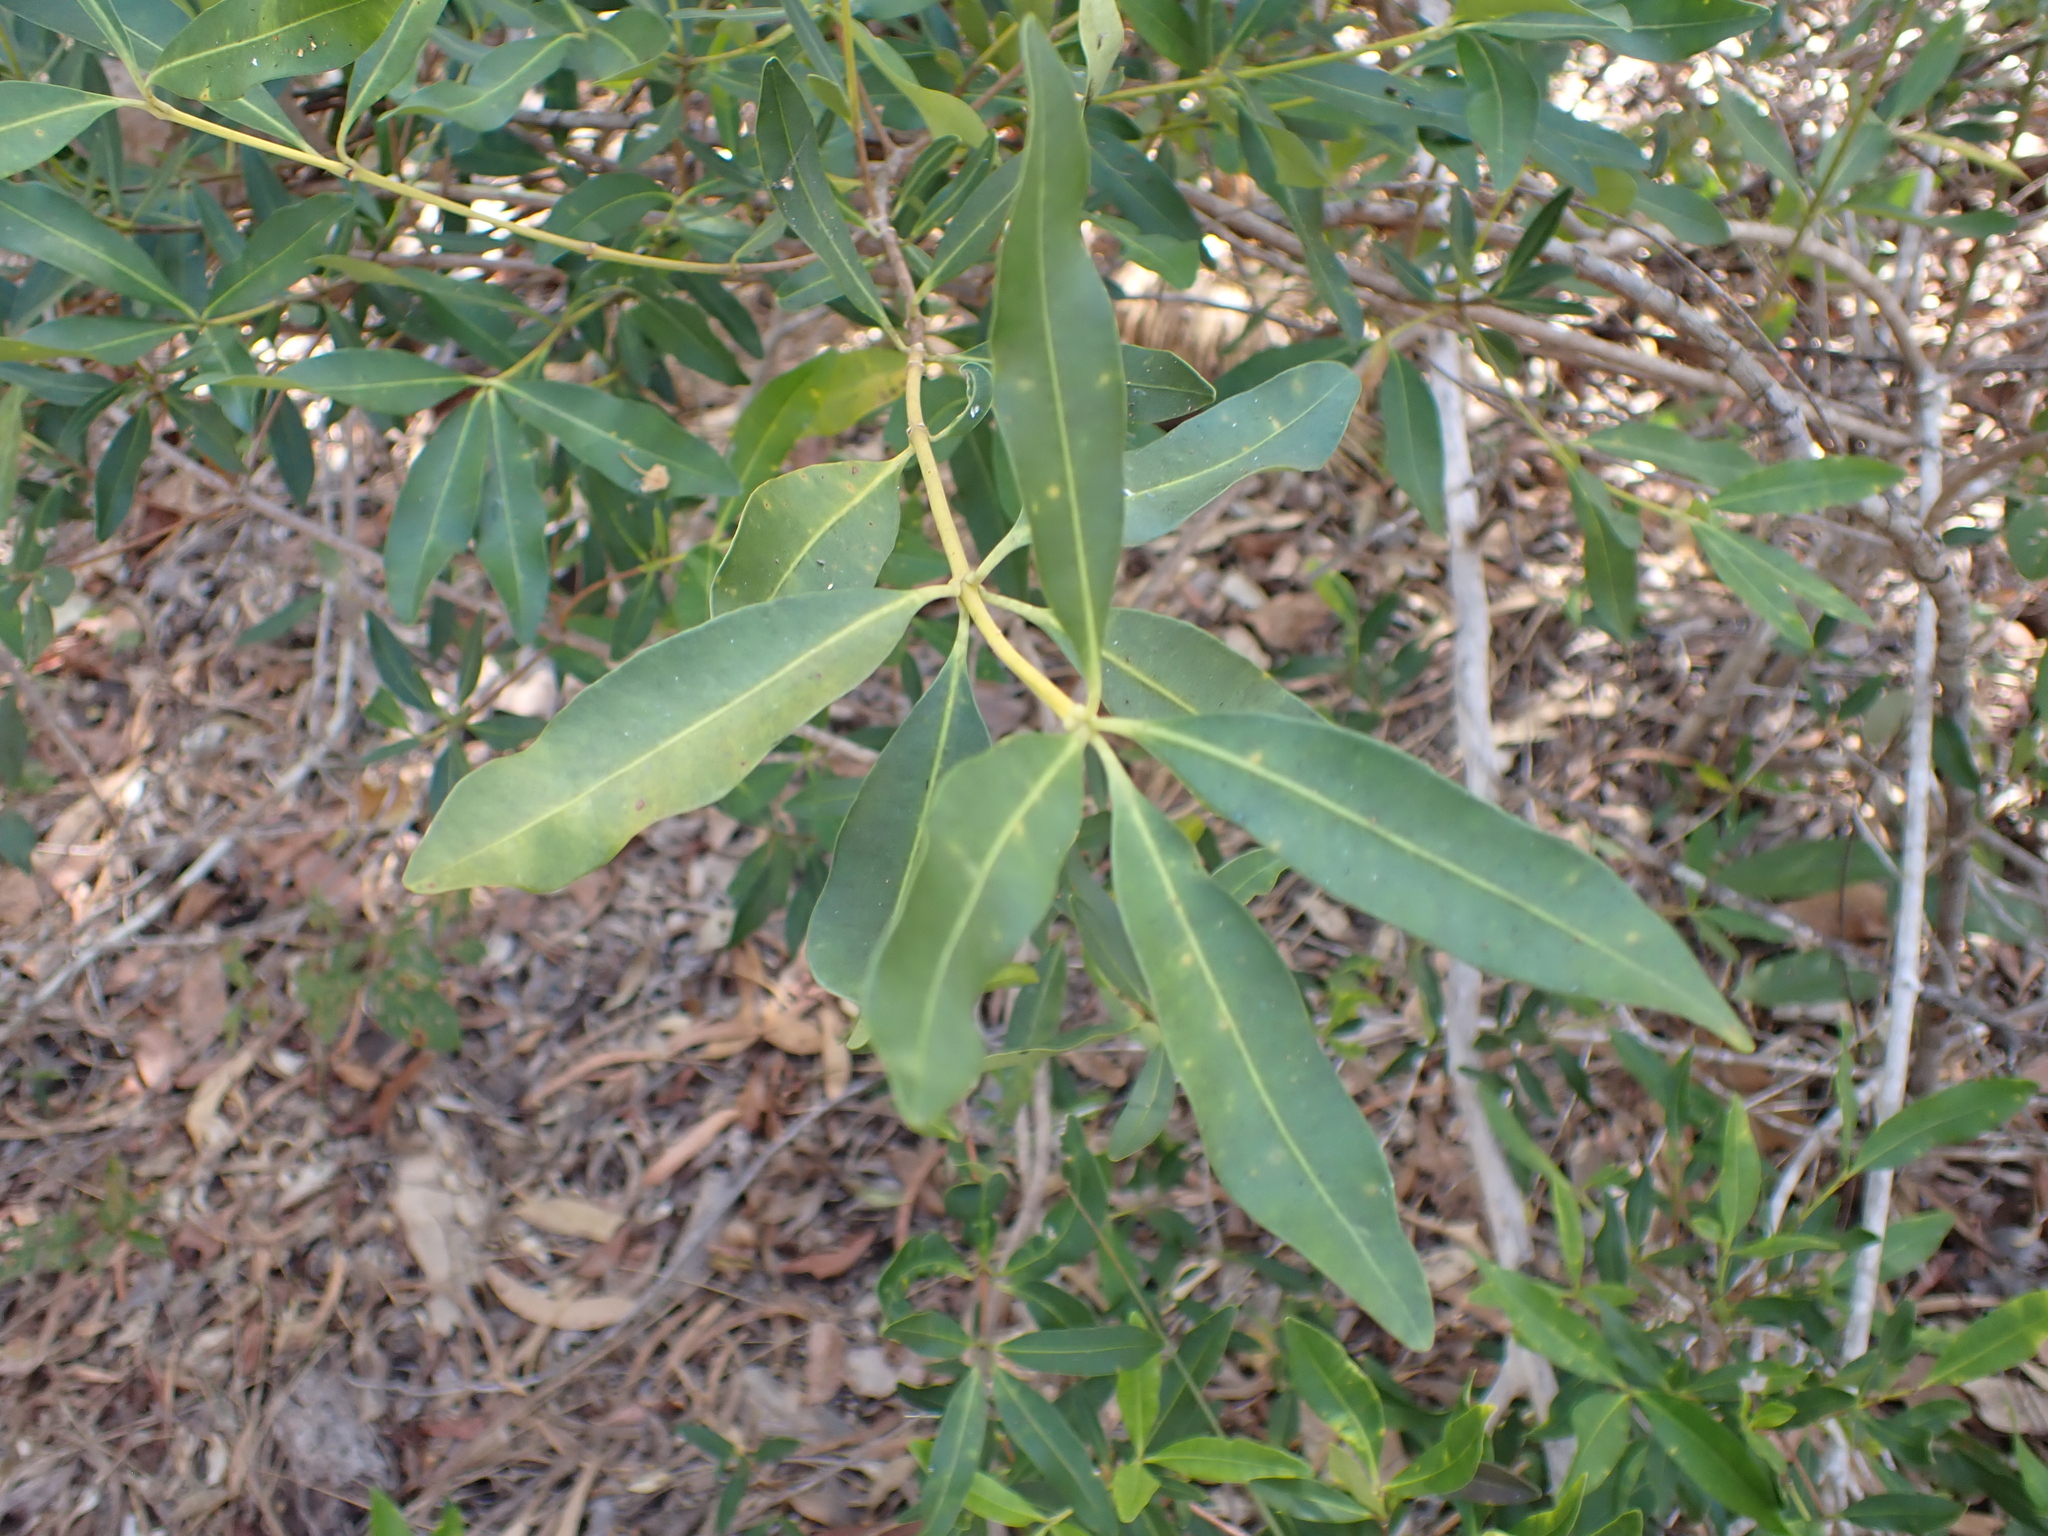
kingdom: Plantae
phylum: Tracheophyta
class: Magnoliopsida
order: Gentianales
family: Apocynaceae
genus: Alyxia
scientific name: Alyxia spicata
